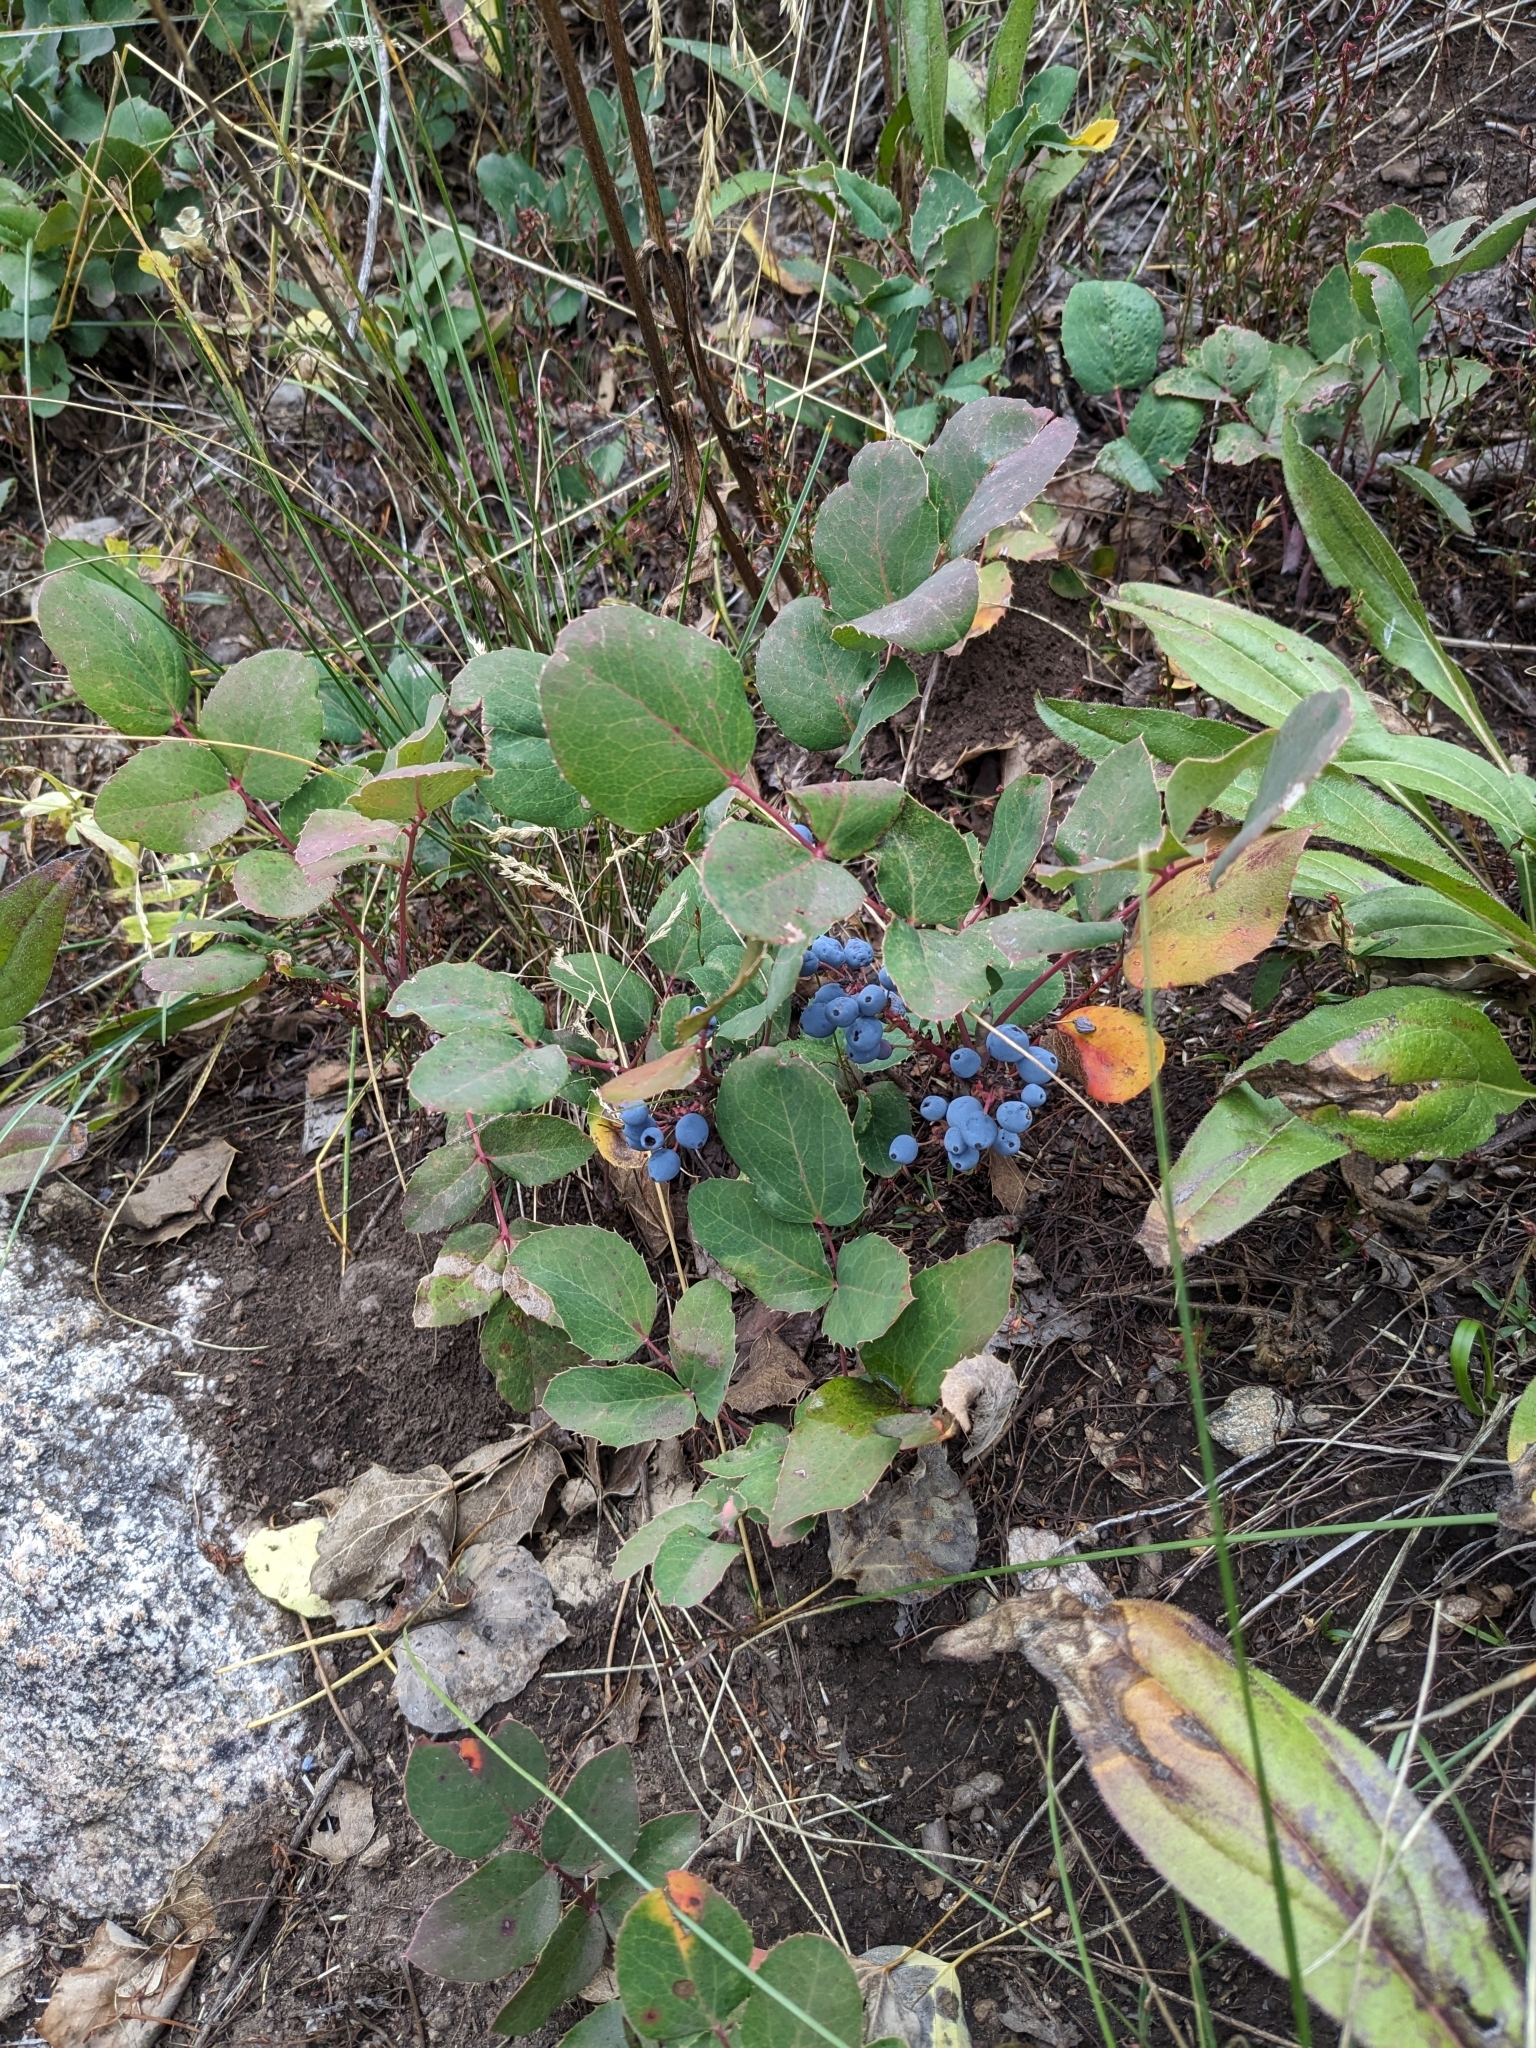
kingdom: Plantae
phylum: Tracheophyta
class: Magnoliopsida
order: Ranunculales
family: Berberidaceae
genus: Mahonia
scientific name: Mahonia repens
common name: Creeping oregon-grape
